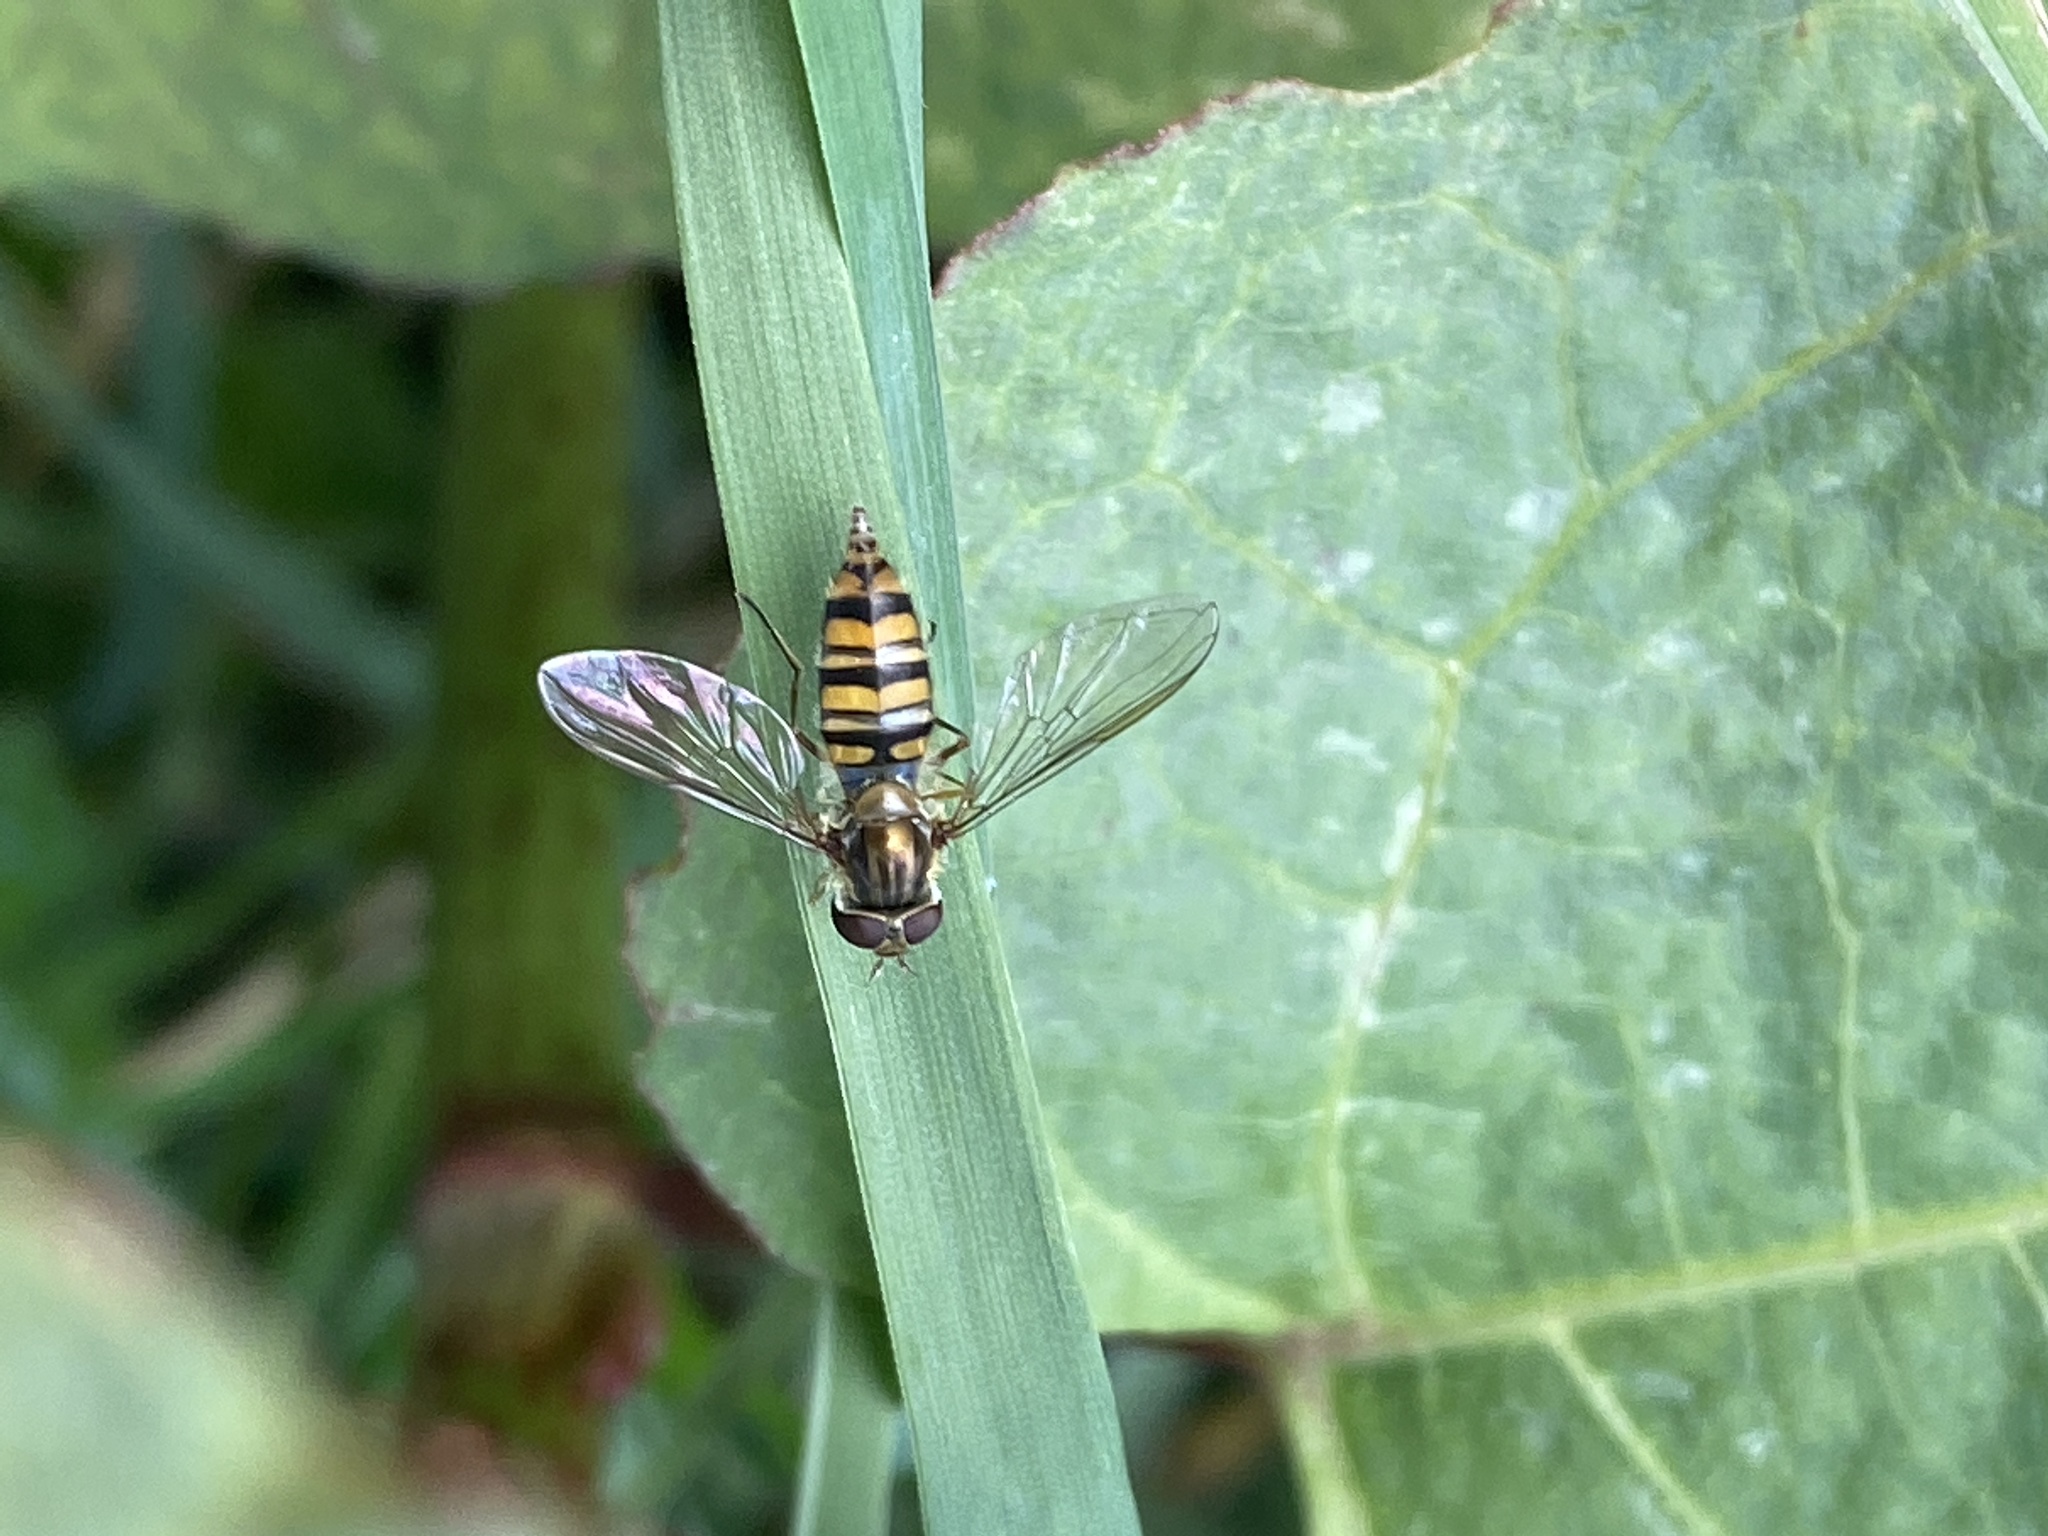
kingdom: Animalia
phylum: Arthropoda
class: Insecta
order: Diptera
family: Syrphidae
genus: Episyrphus
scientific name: Episyrphus balteatus
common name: Marmalade hoverfly
